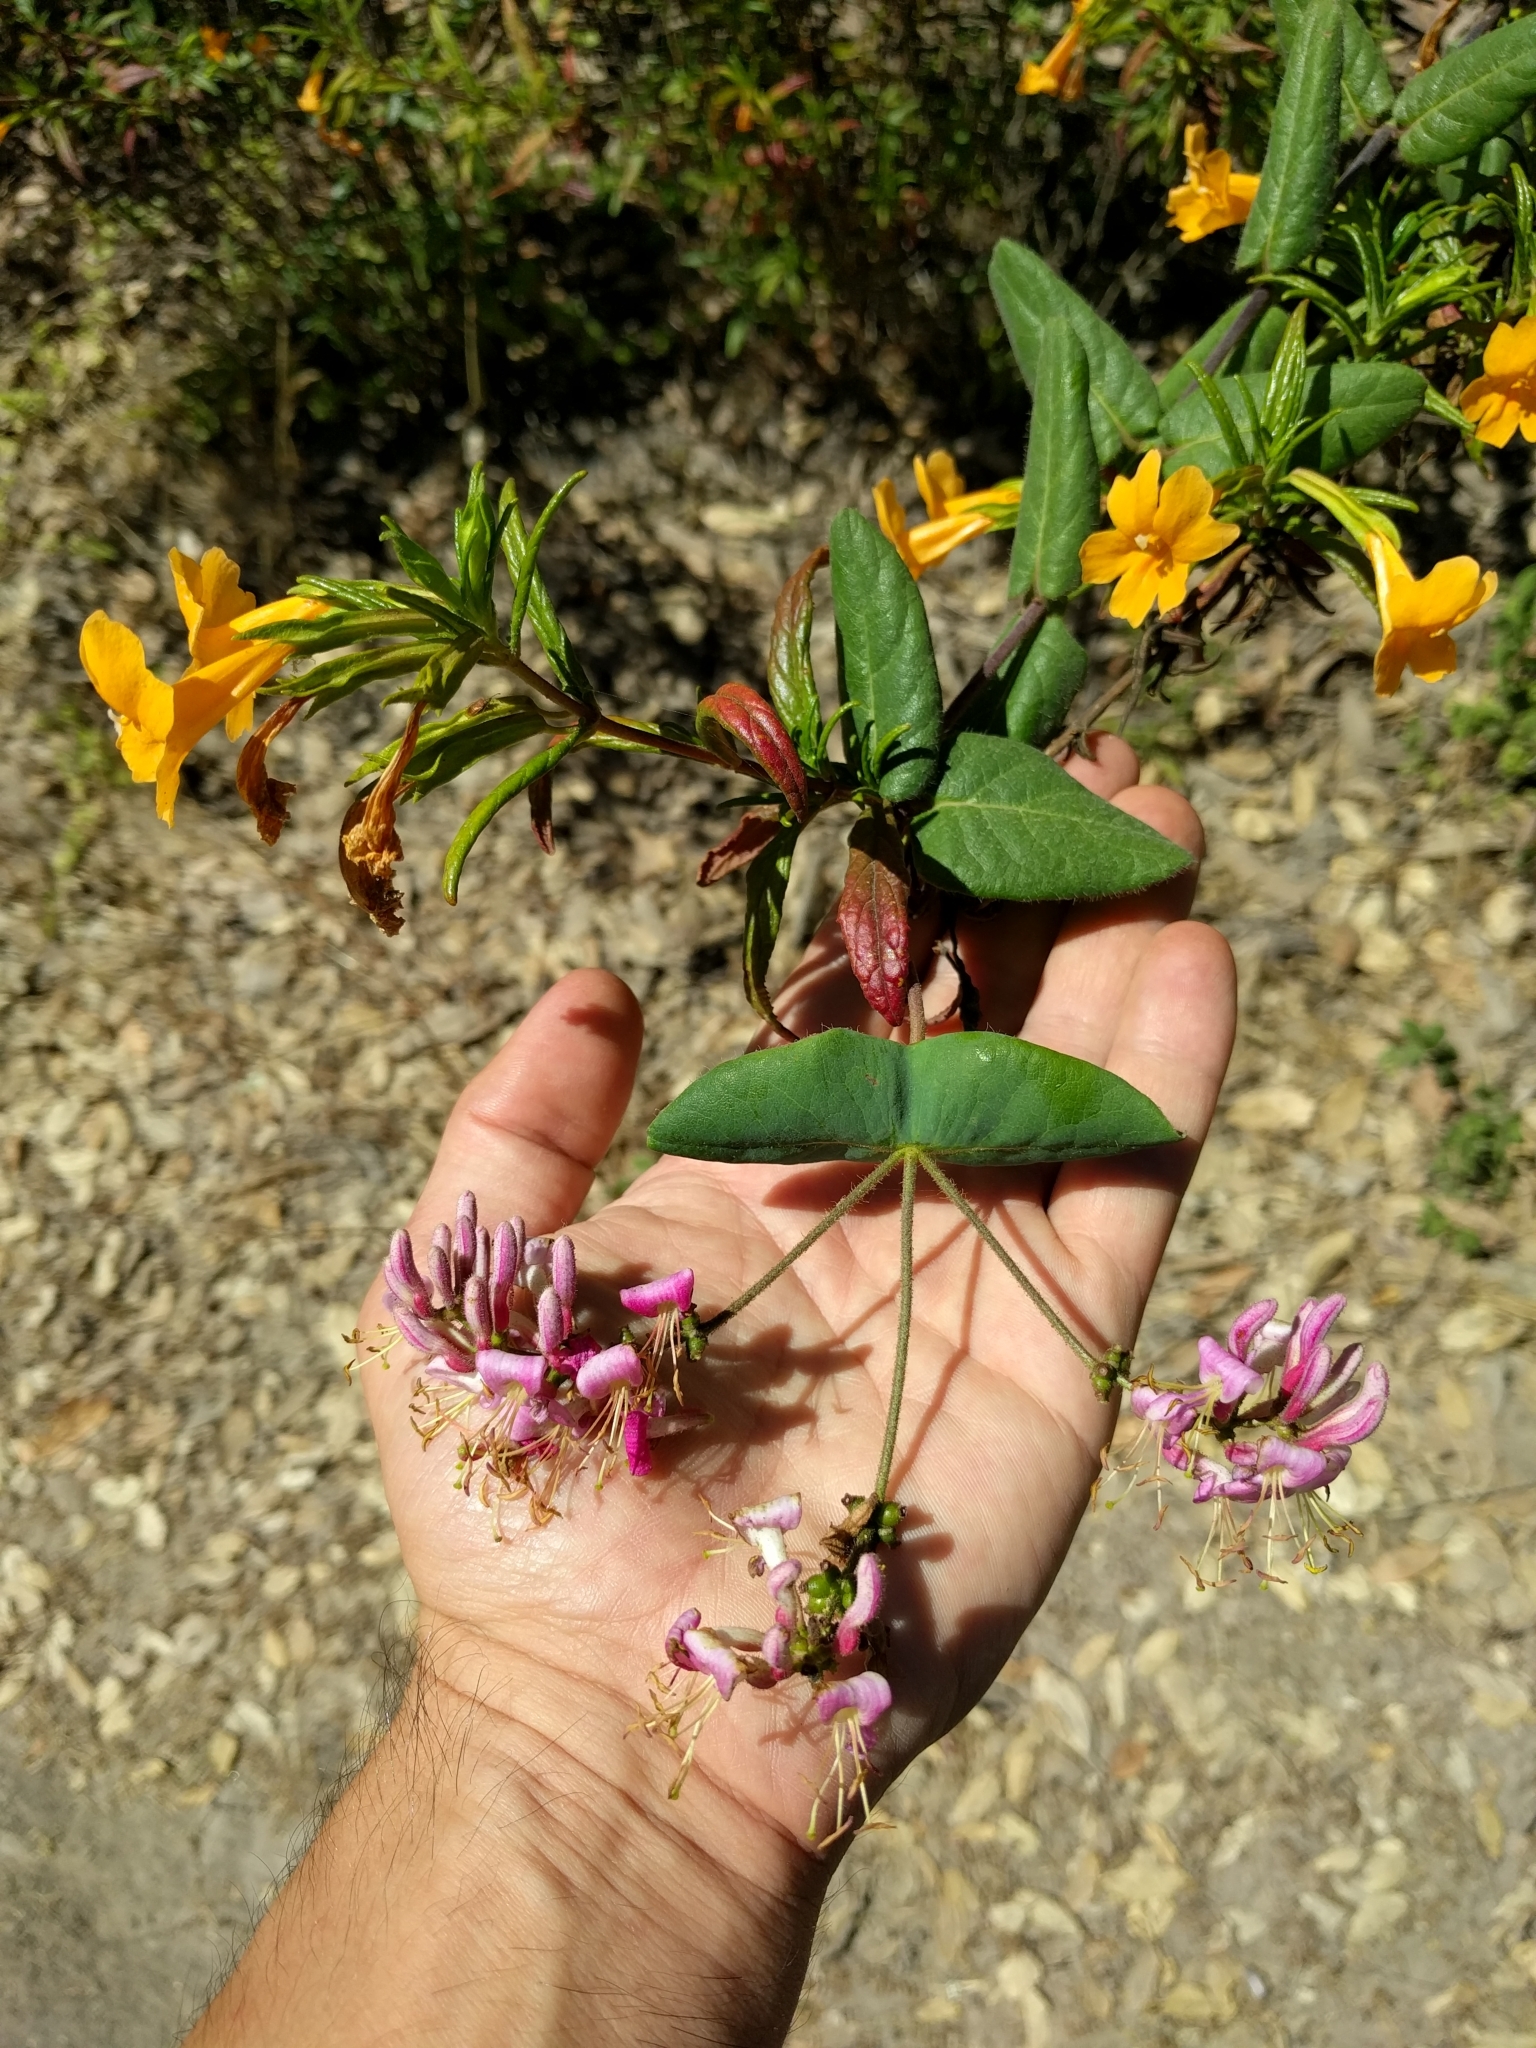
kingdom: Plantae
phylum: Tracheophyta
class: Magnoliopsida
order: Dipsacales
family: Caprifoliaceae
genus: Lonicera
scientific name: Lonicera hispidula
